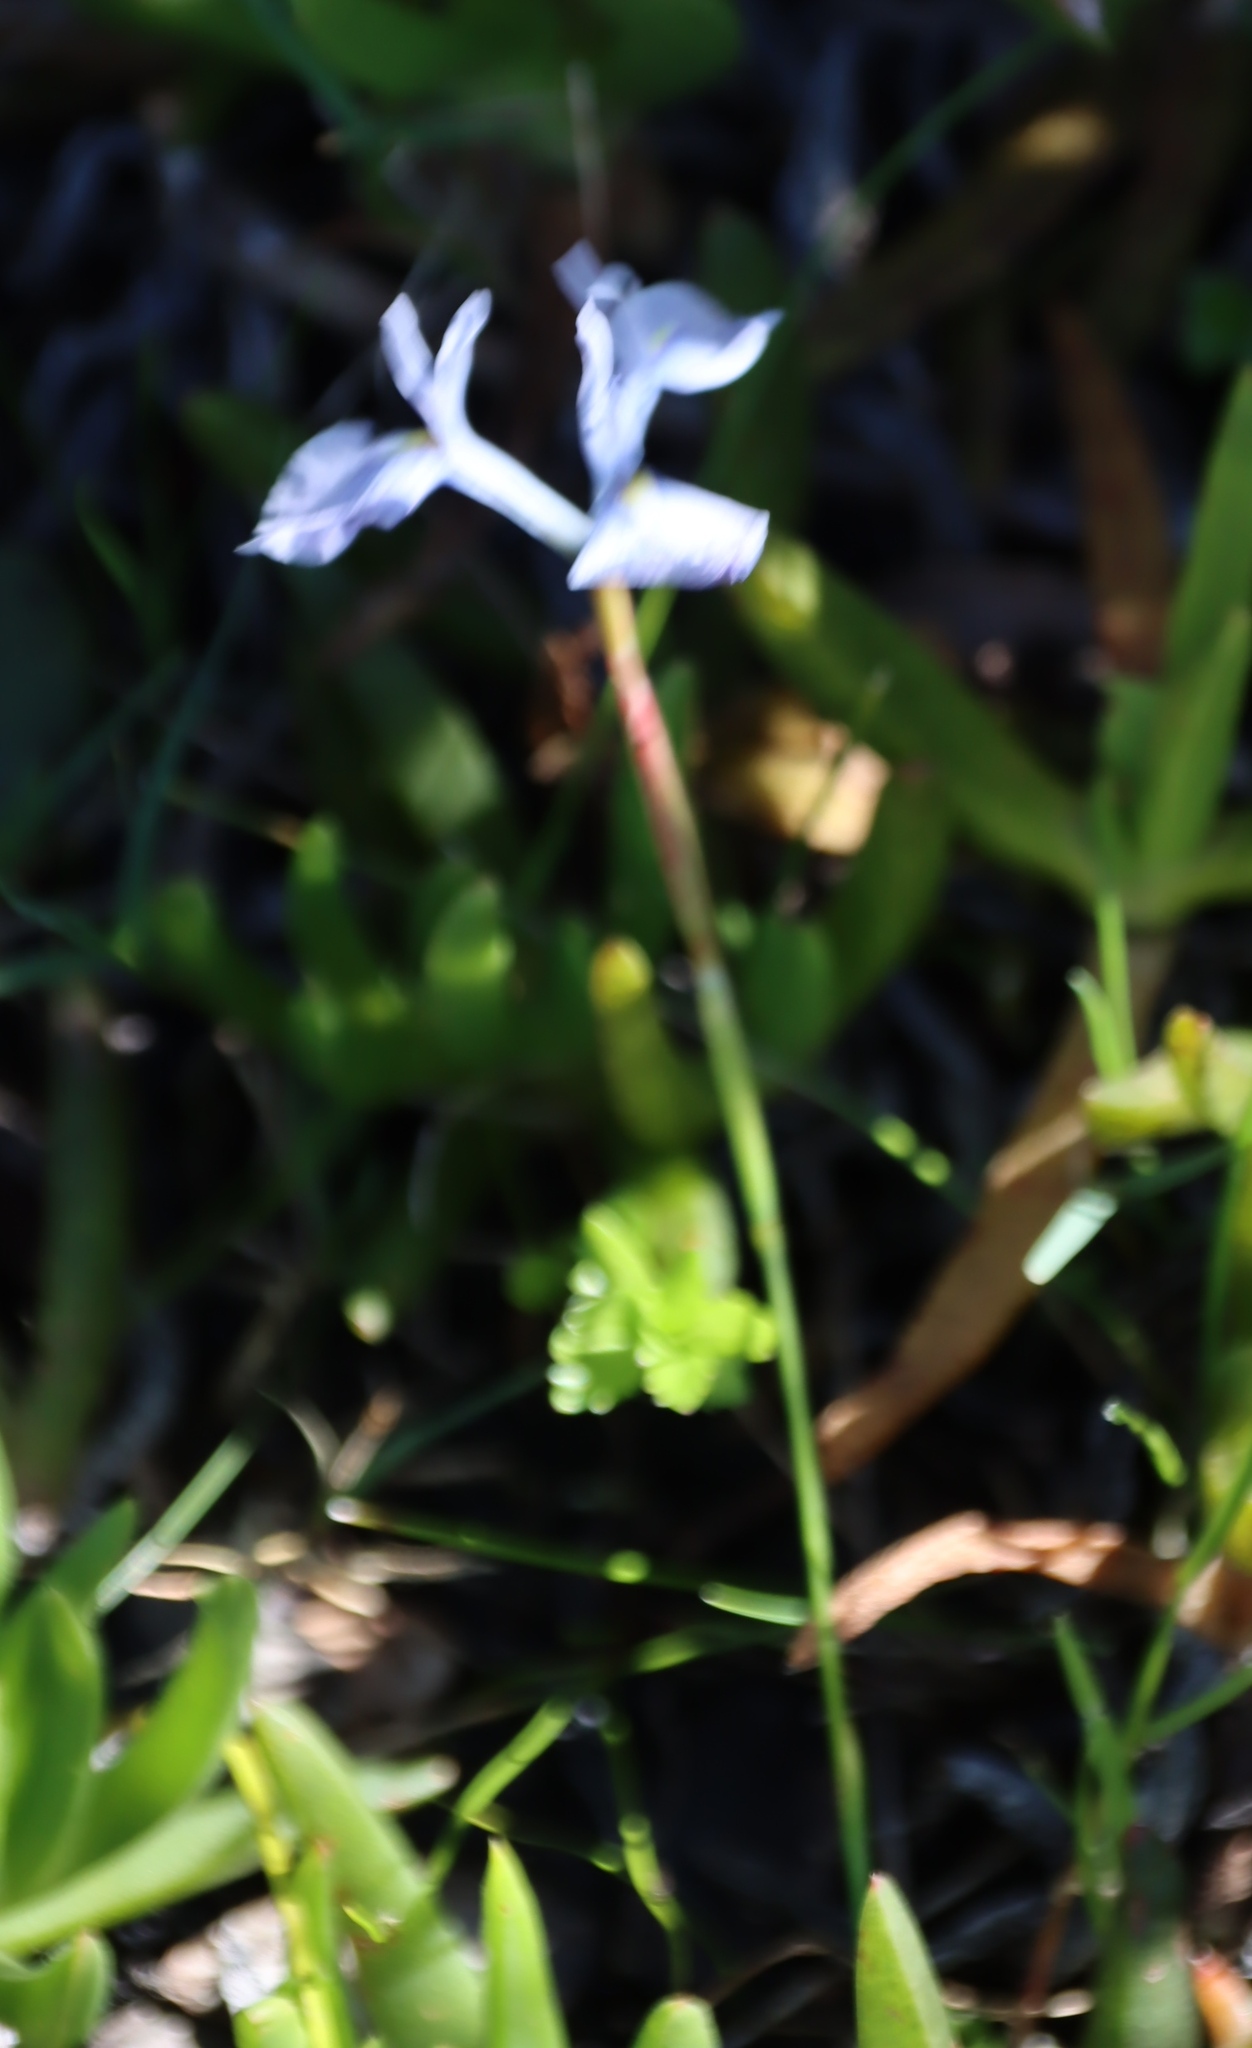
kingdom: Plantae
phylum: Tracheophyta
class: Liliopsida
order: Asparagales
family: Iridaceae
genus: Moraea
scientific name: Moraea tripetala
